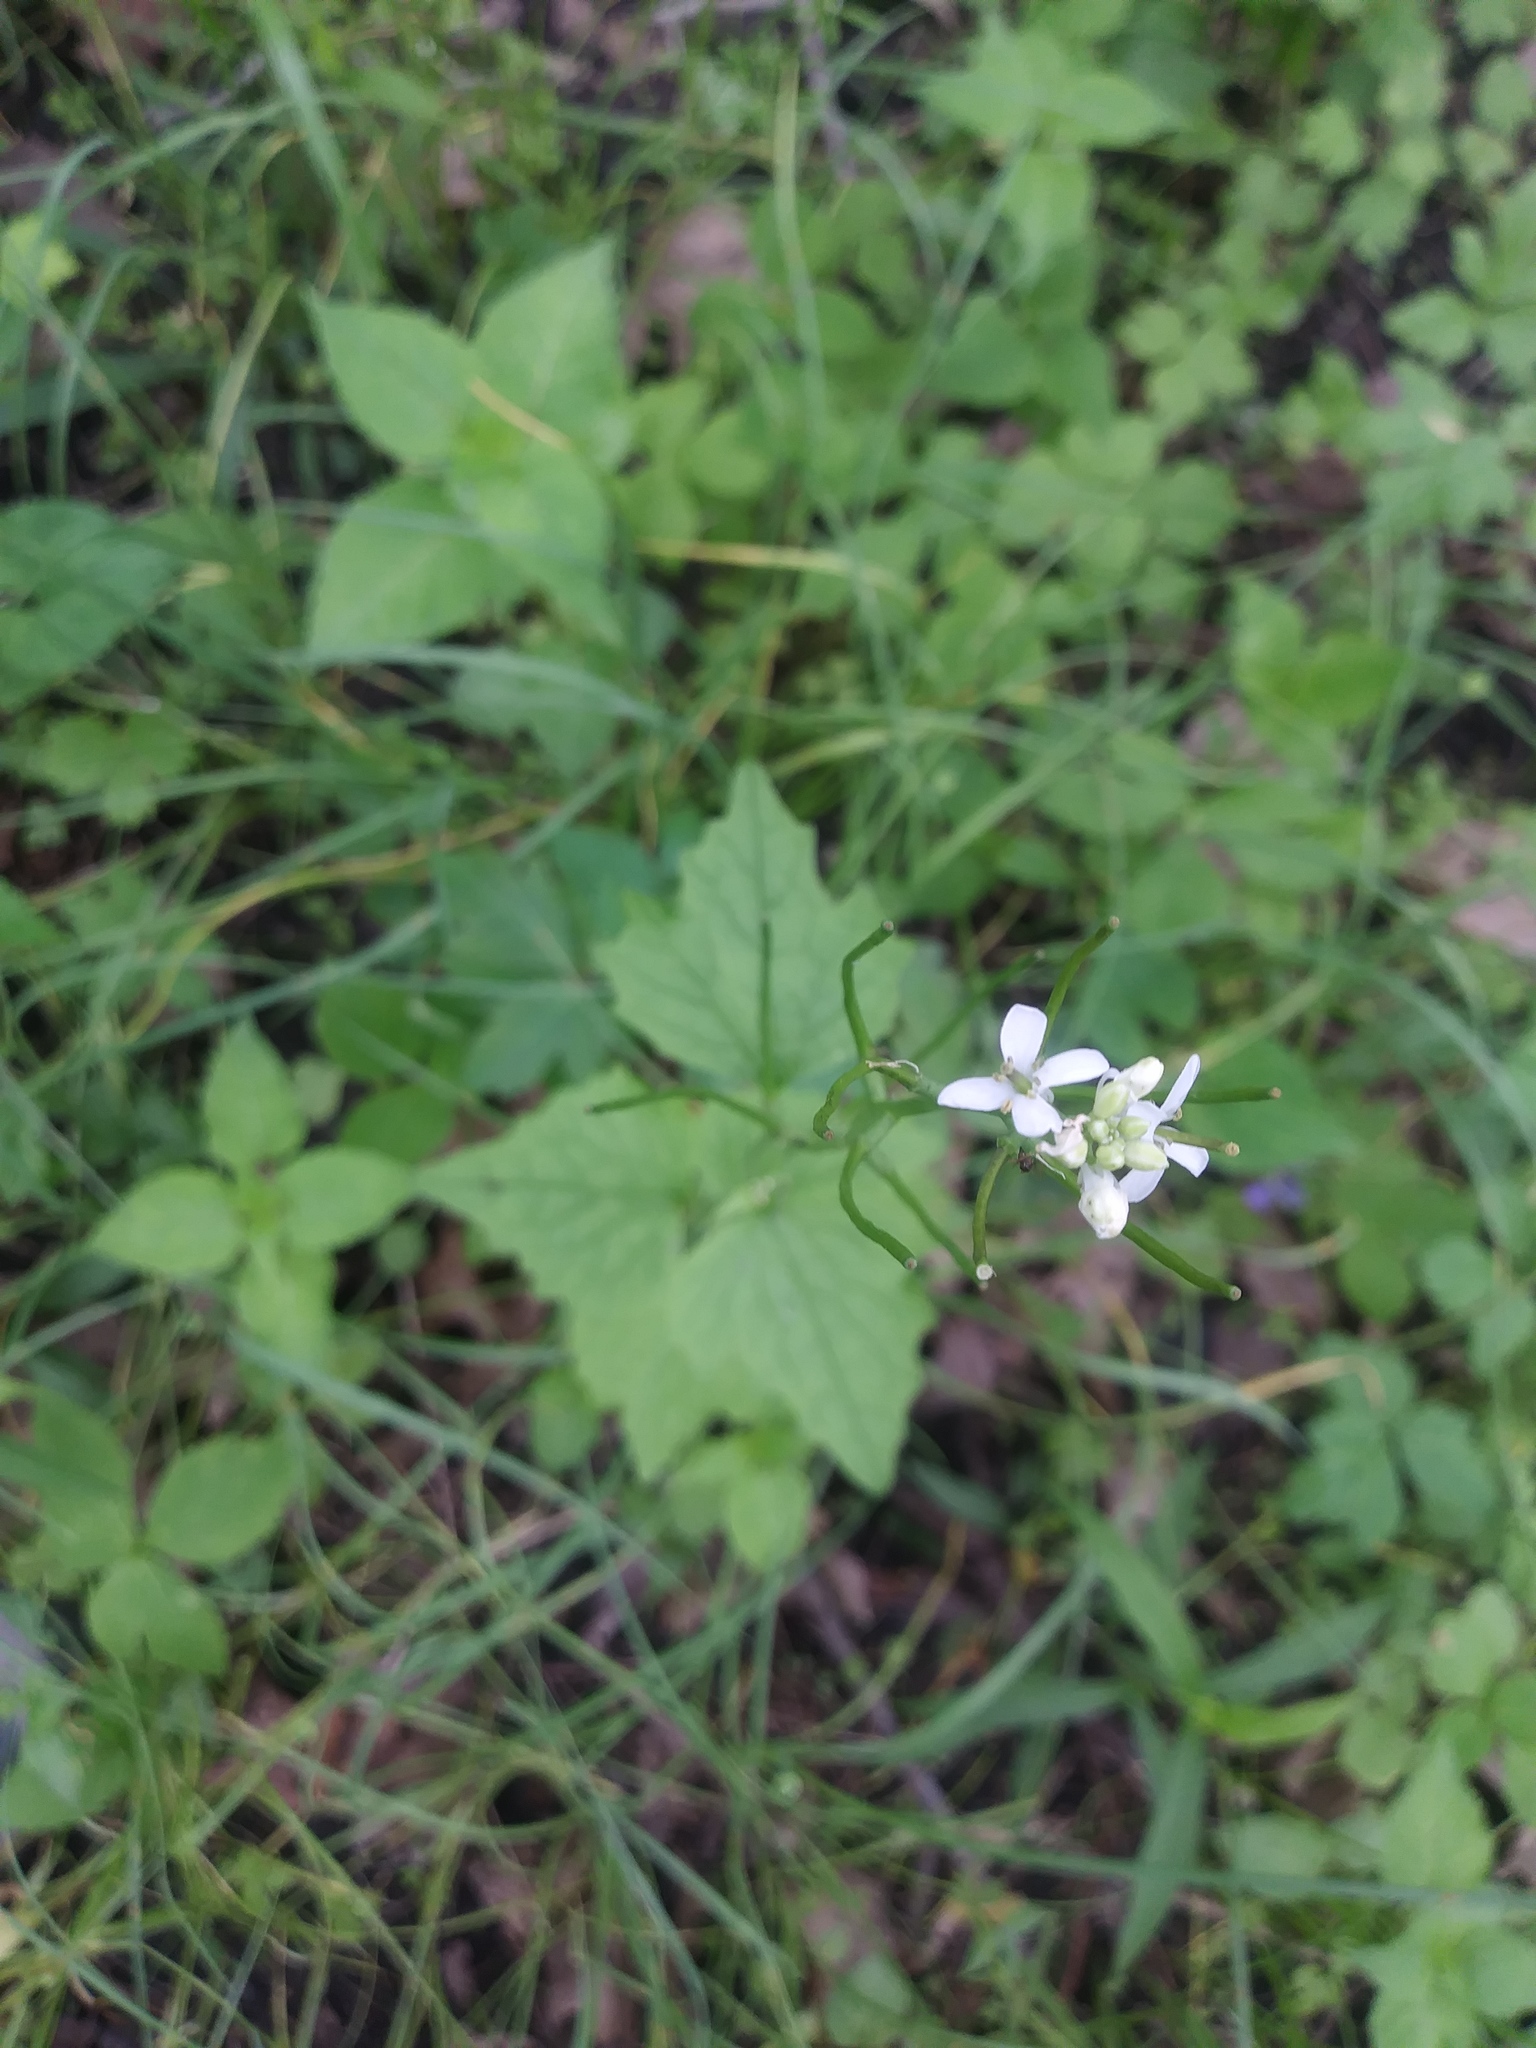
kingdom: Plantae
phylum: Tracheophyta
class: Magnoliopsida
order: Brassicales
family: Brassicaceae
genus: Alliaria
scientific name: Alliaria petiolata
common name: Garlic mustard
